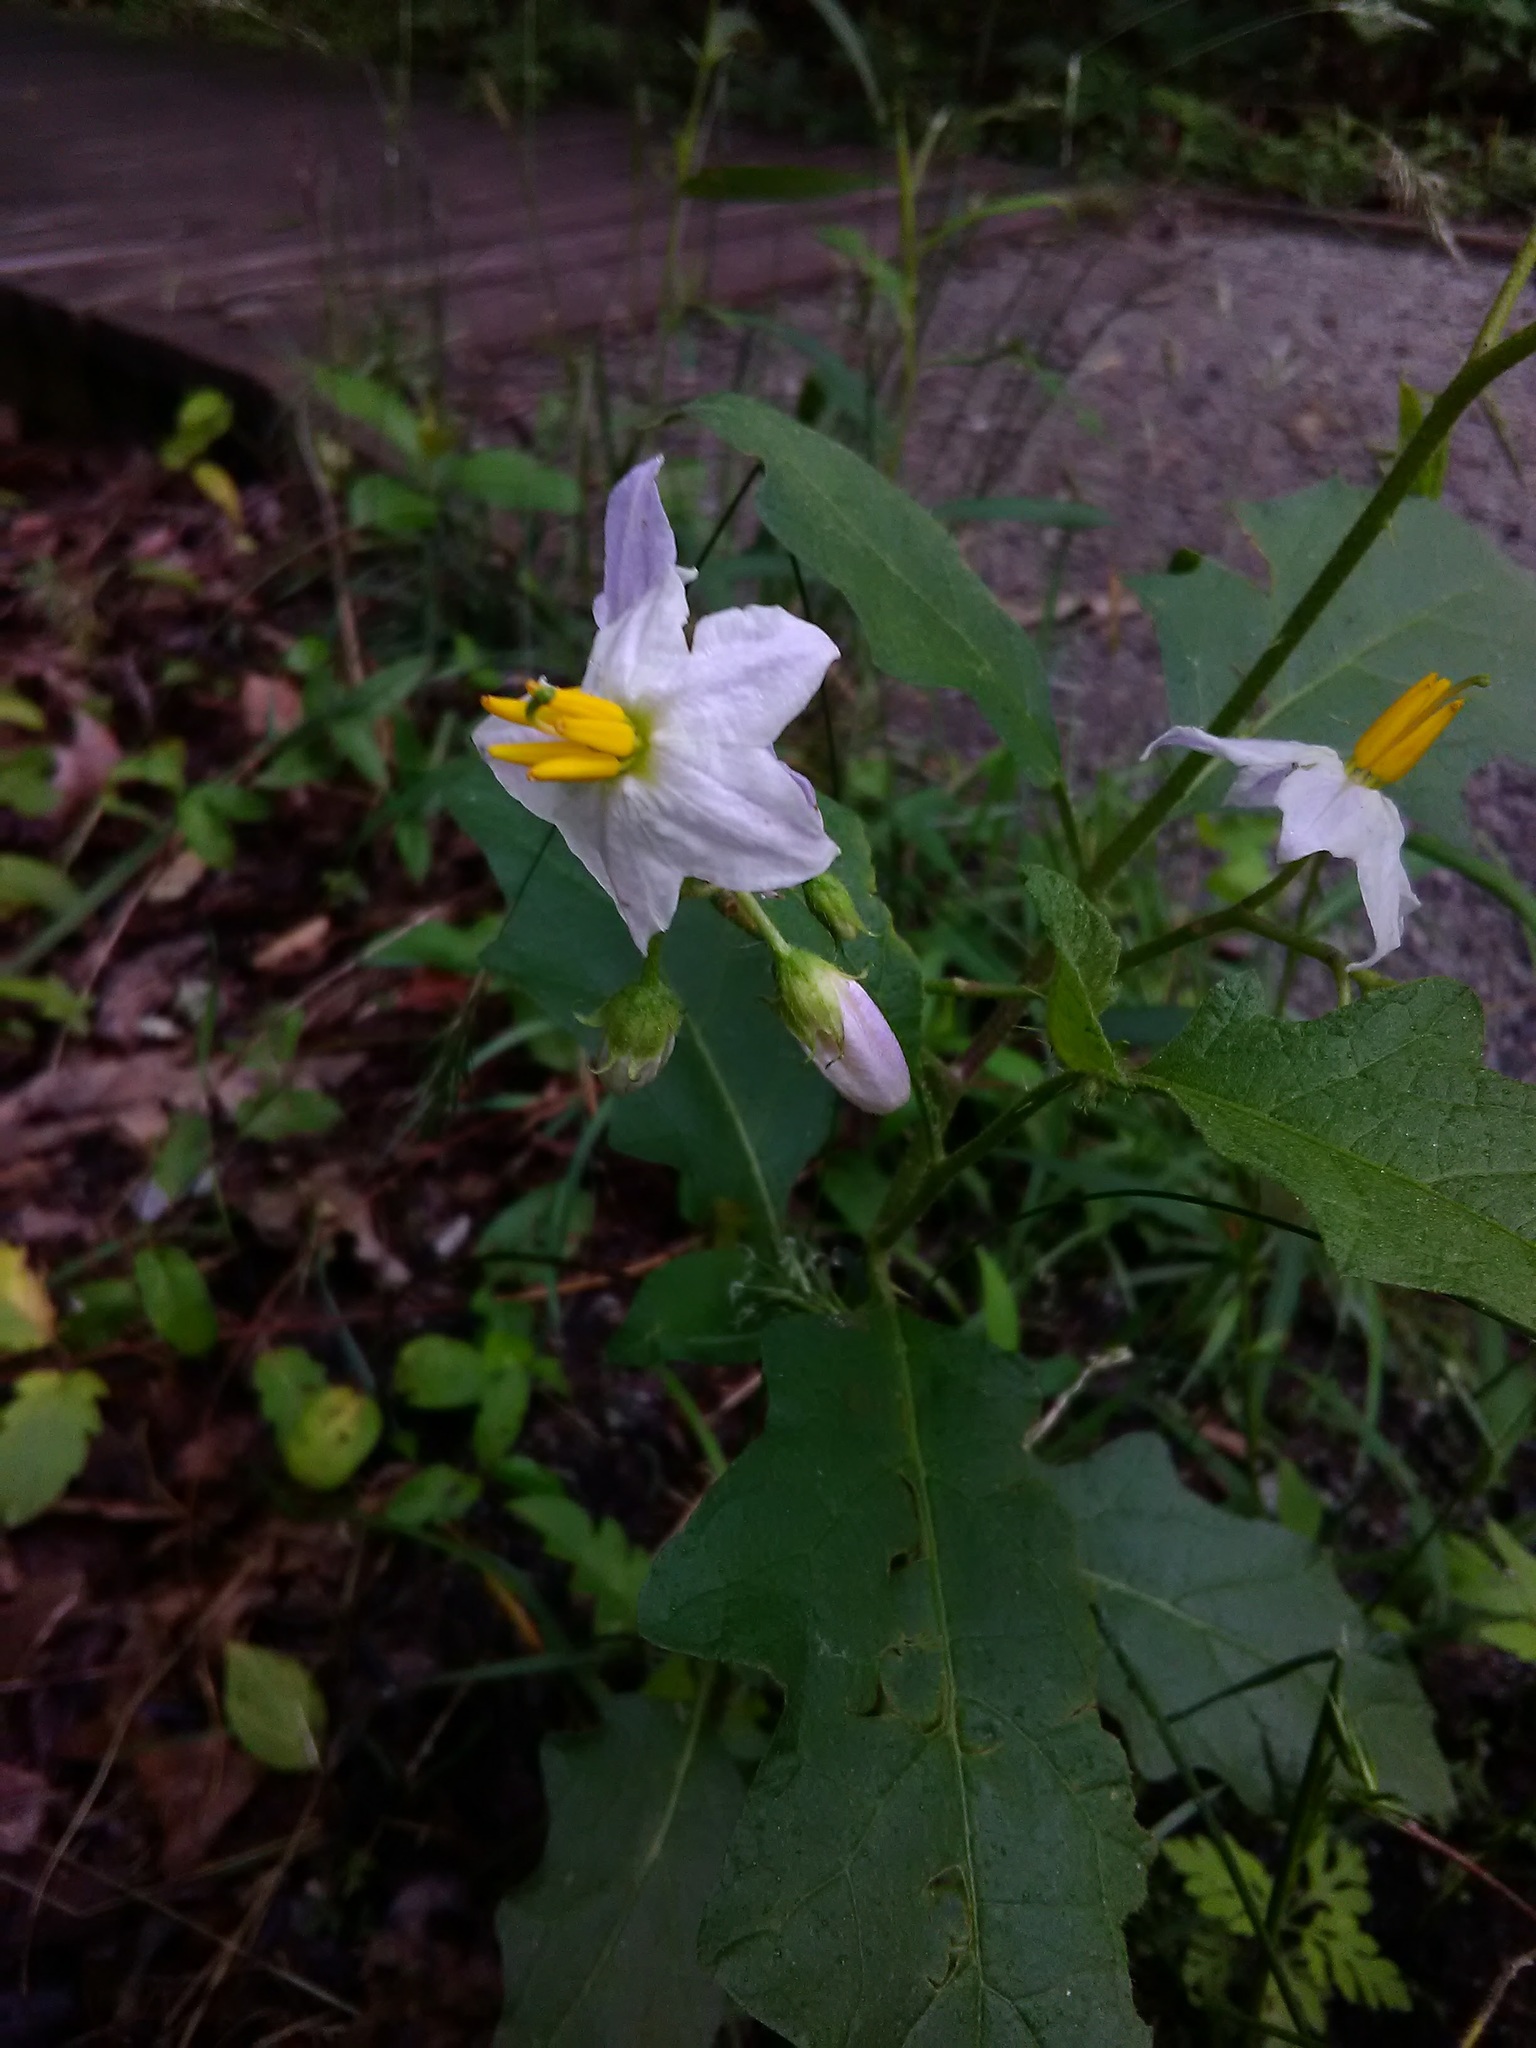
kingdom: Plantae
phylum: Tracheophyta
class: Magnoliopsida
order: Solanales
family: Solanaceae
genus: Solanum
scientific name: Solanum carolinense
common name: Horse-nettle
